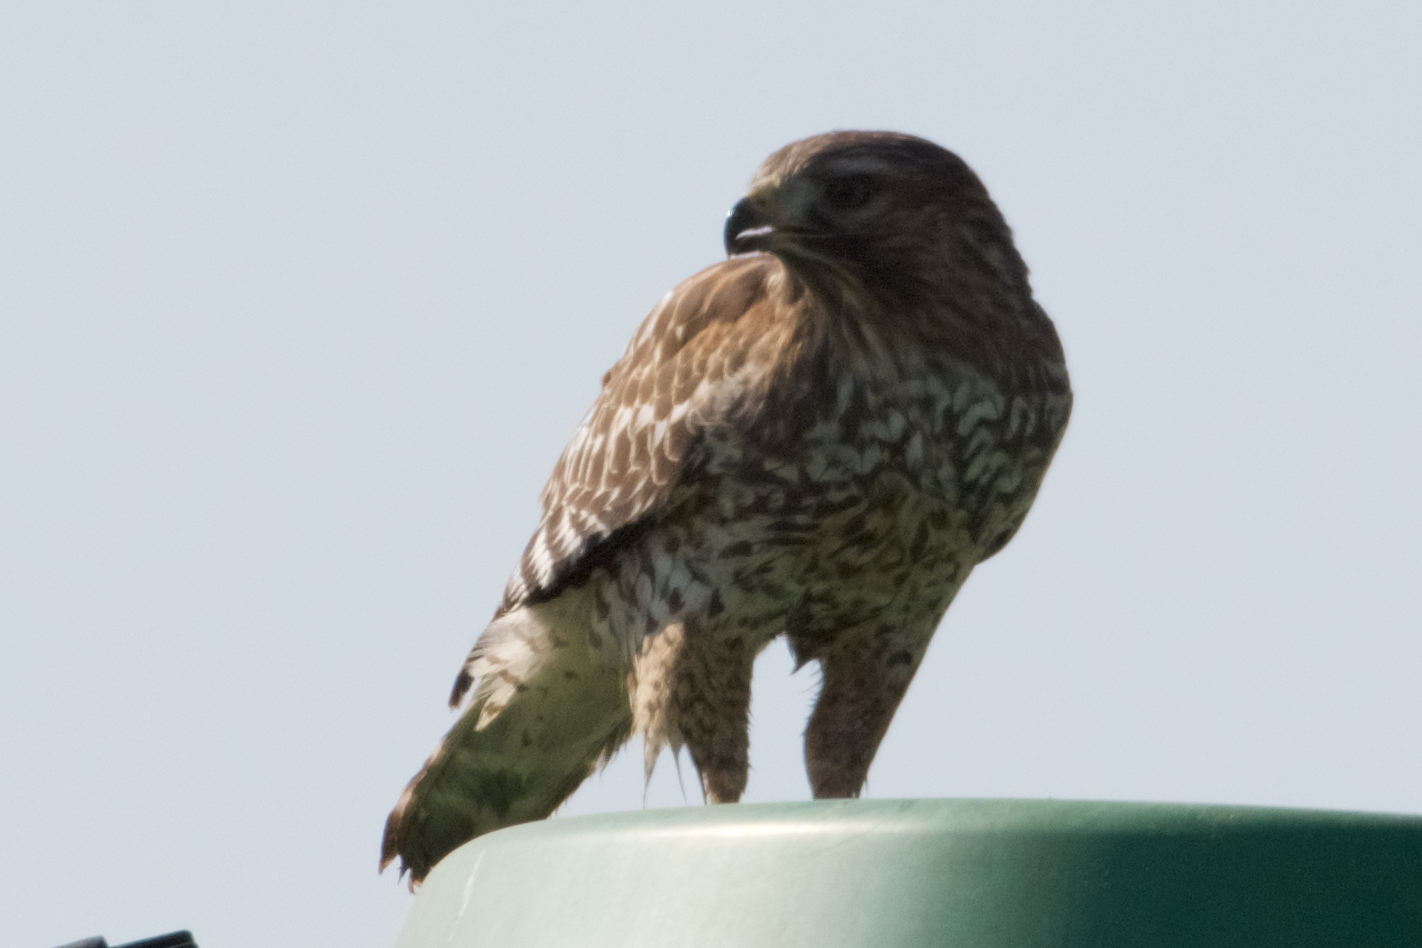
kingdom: Animalia
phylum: Chordata
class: Aves
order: Accipitriformes
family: Accipitridae
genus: Buteo
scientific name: Buteo lineatus
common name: Red-shouldered hawk
